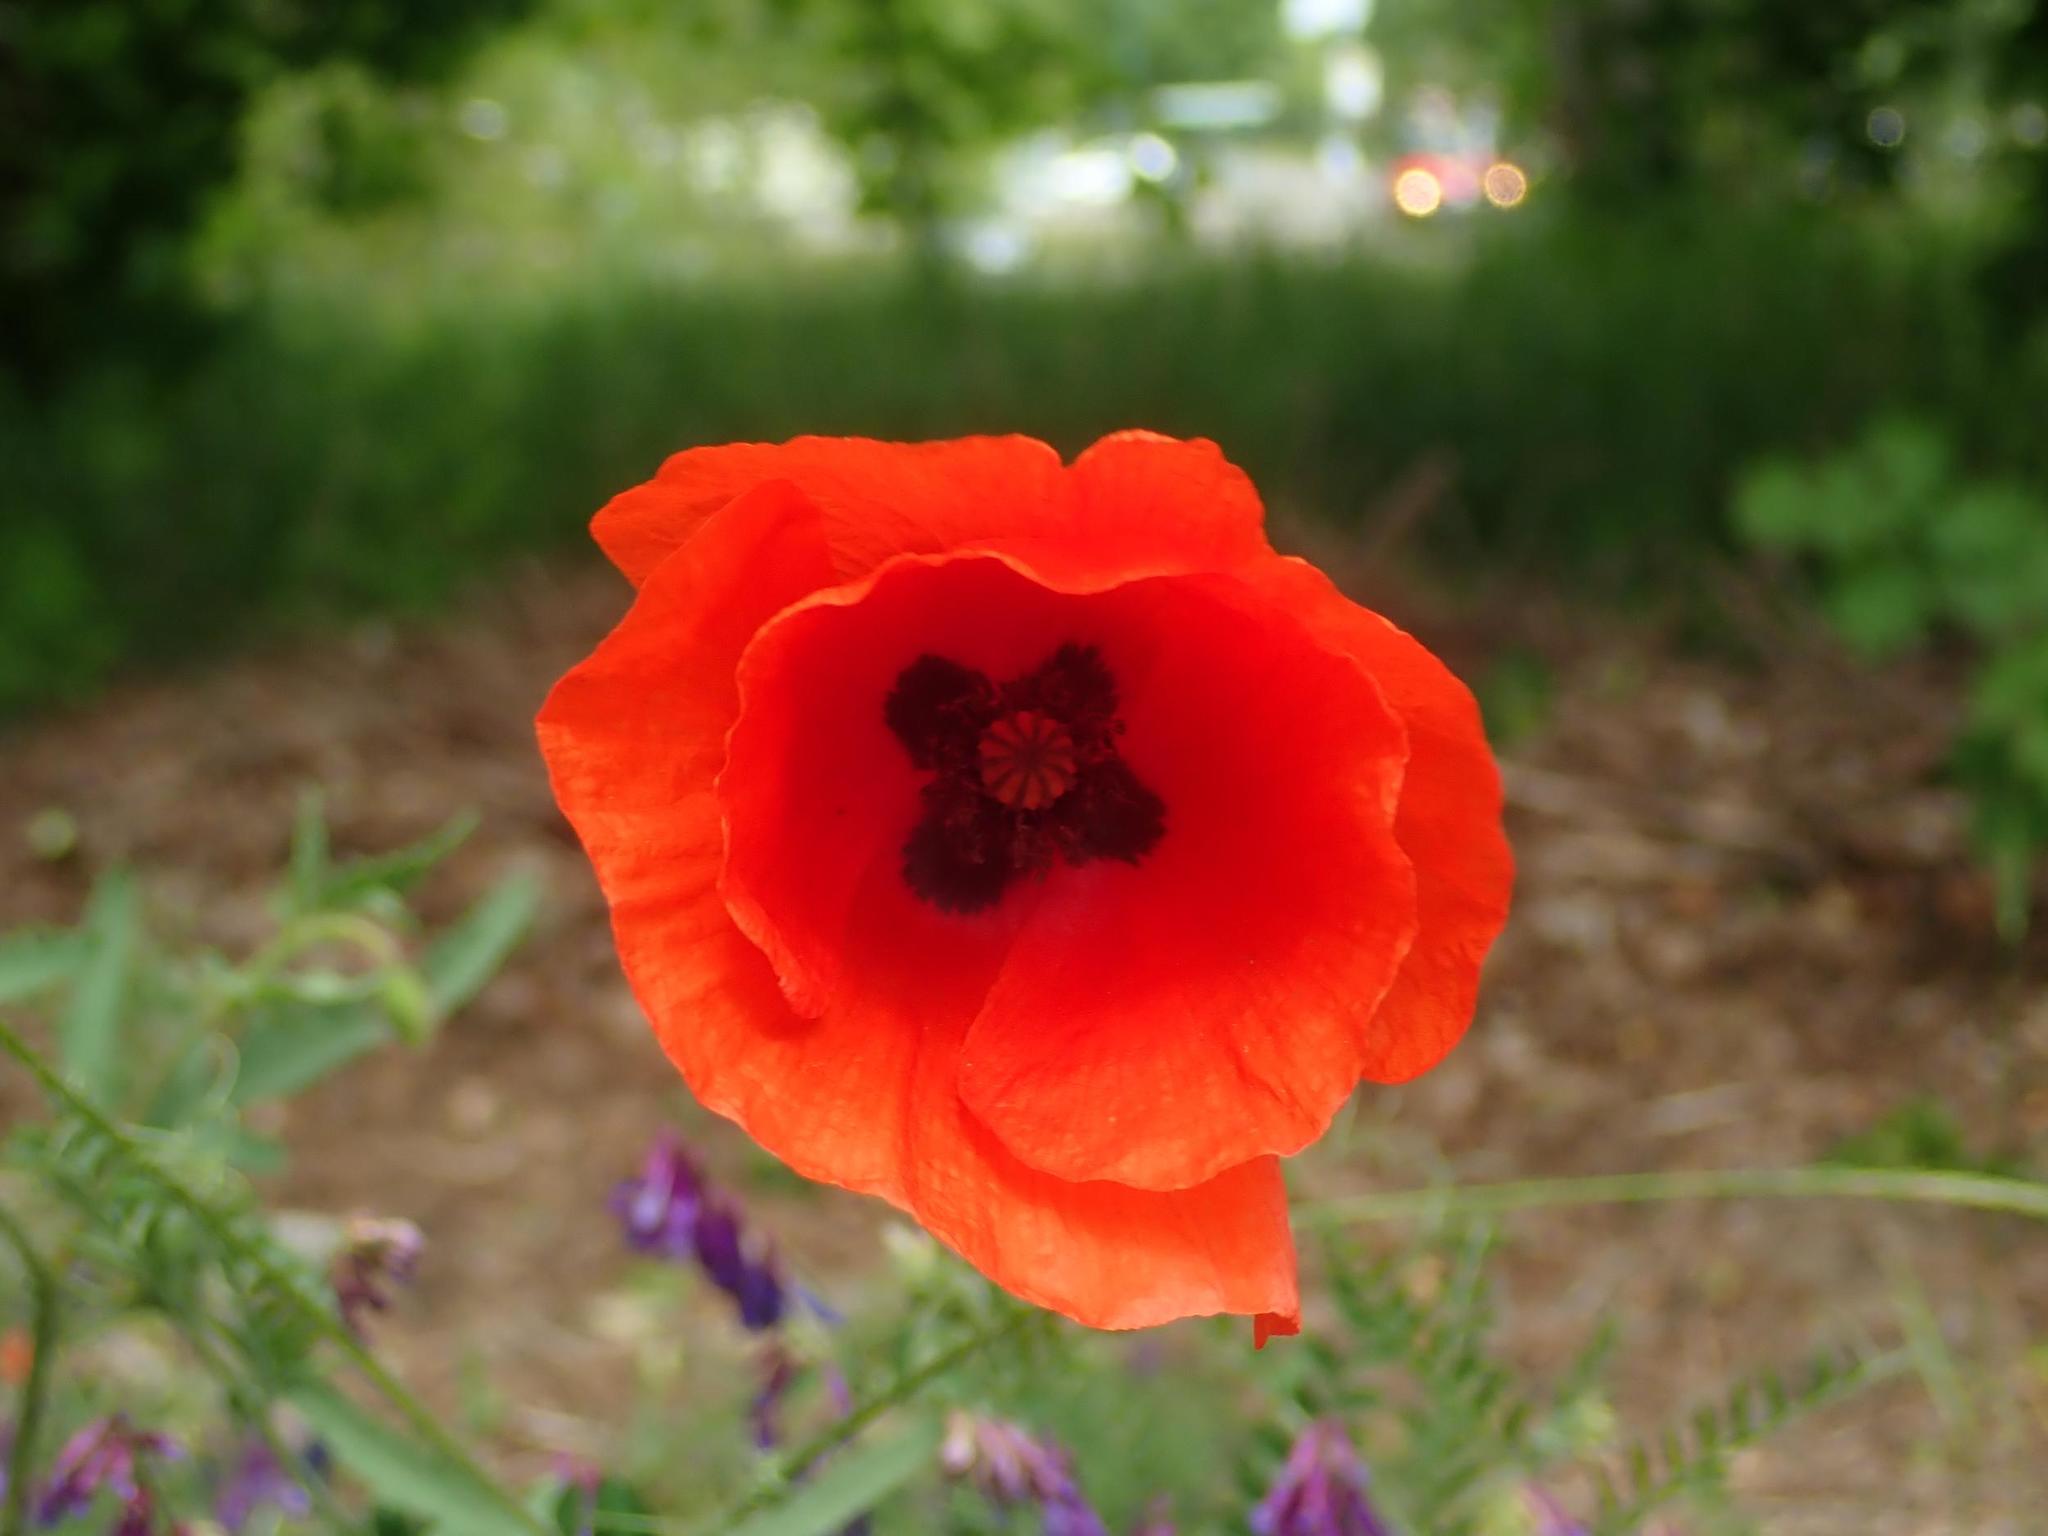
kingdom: Plantae
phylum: Tracheophyta
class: Magnoliopsida
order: Ranunculales
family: Papaveraceae
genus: Papaver
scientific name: Papaver rhoeas
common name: Corn poppy
